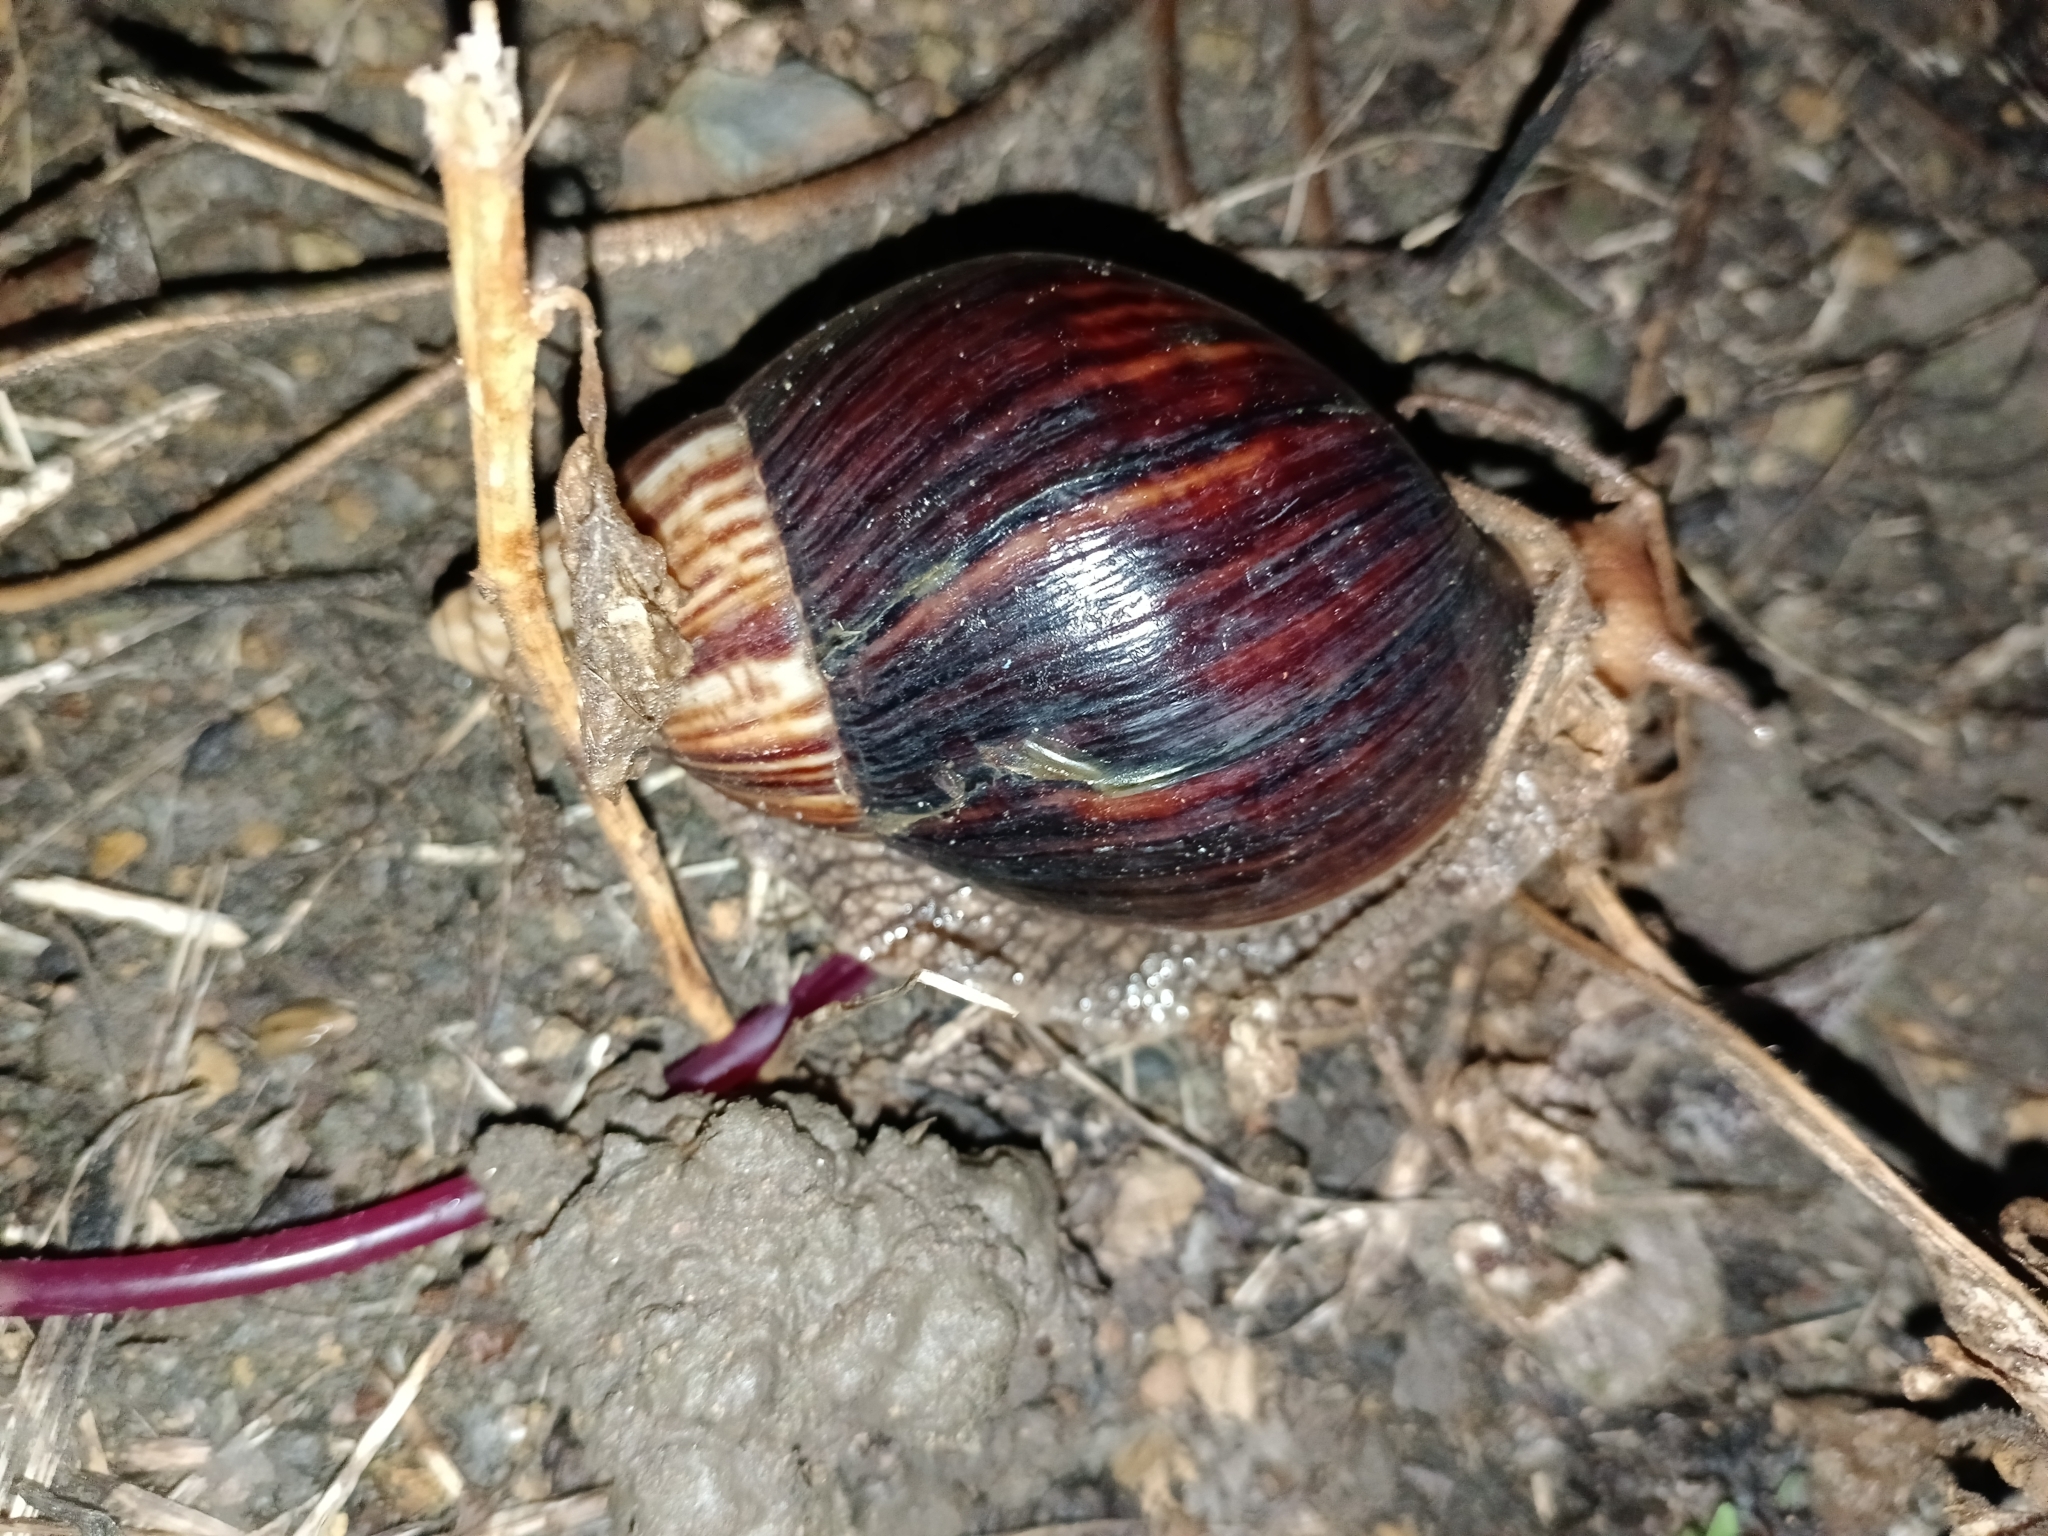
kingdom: Animalia
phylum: Mollusca
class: Gastropoda
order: Stylommatophora
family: Achatinidae
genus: Lissachatina
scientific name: Lissachatina immaculata
